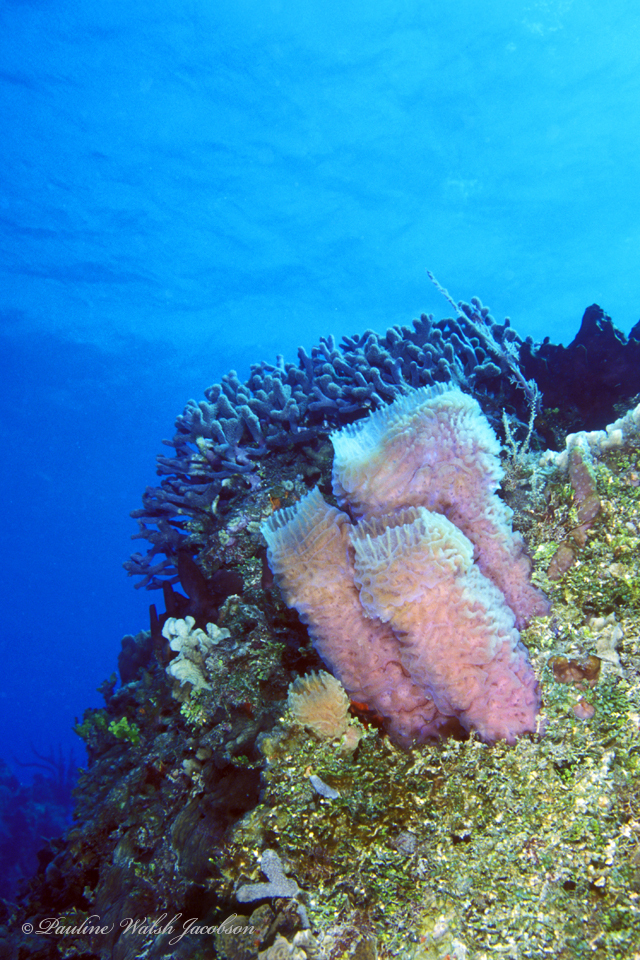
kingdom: Animalia
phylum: Porifera
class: Demospongiae
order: Haplosclerida
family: Callyspongiidae
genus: Callyspongia
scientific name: Callyspongia plicifera
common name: Azure vase sponge
